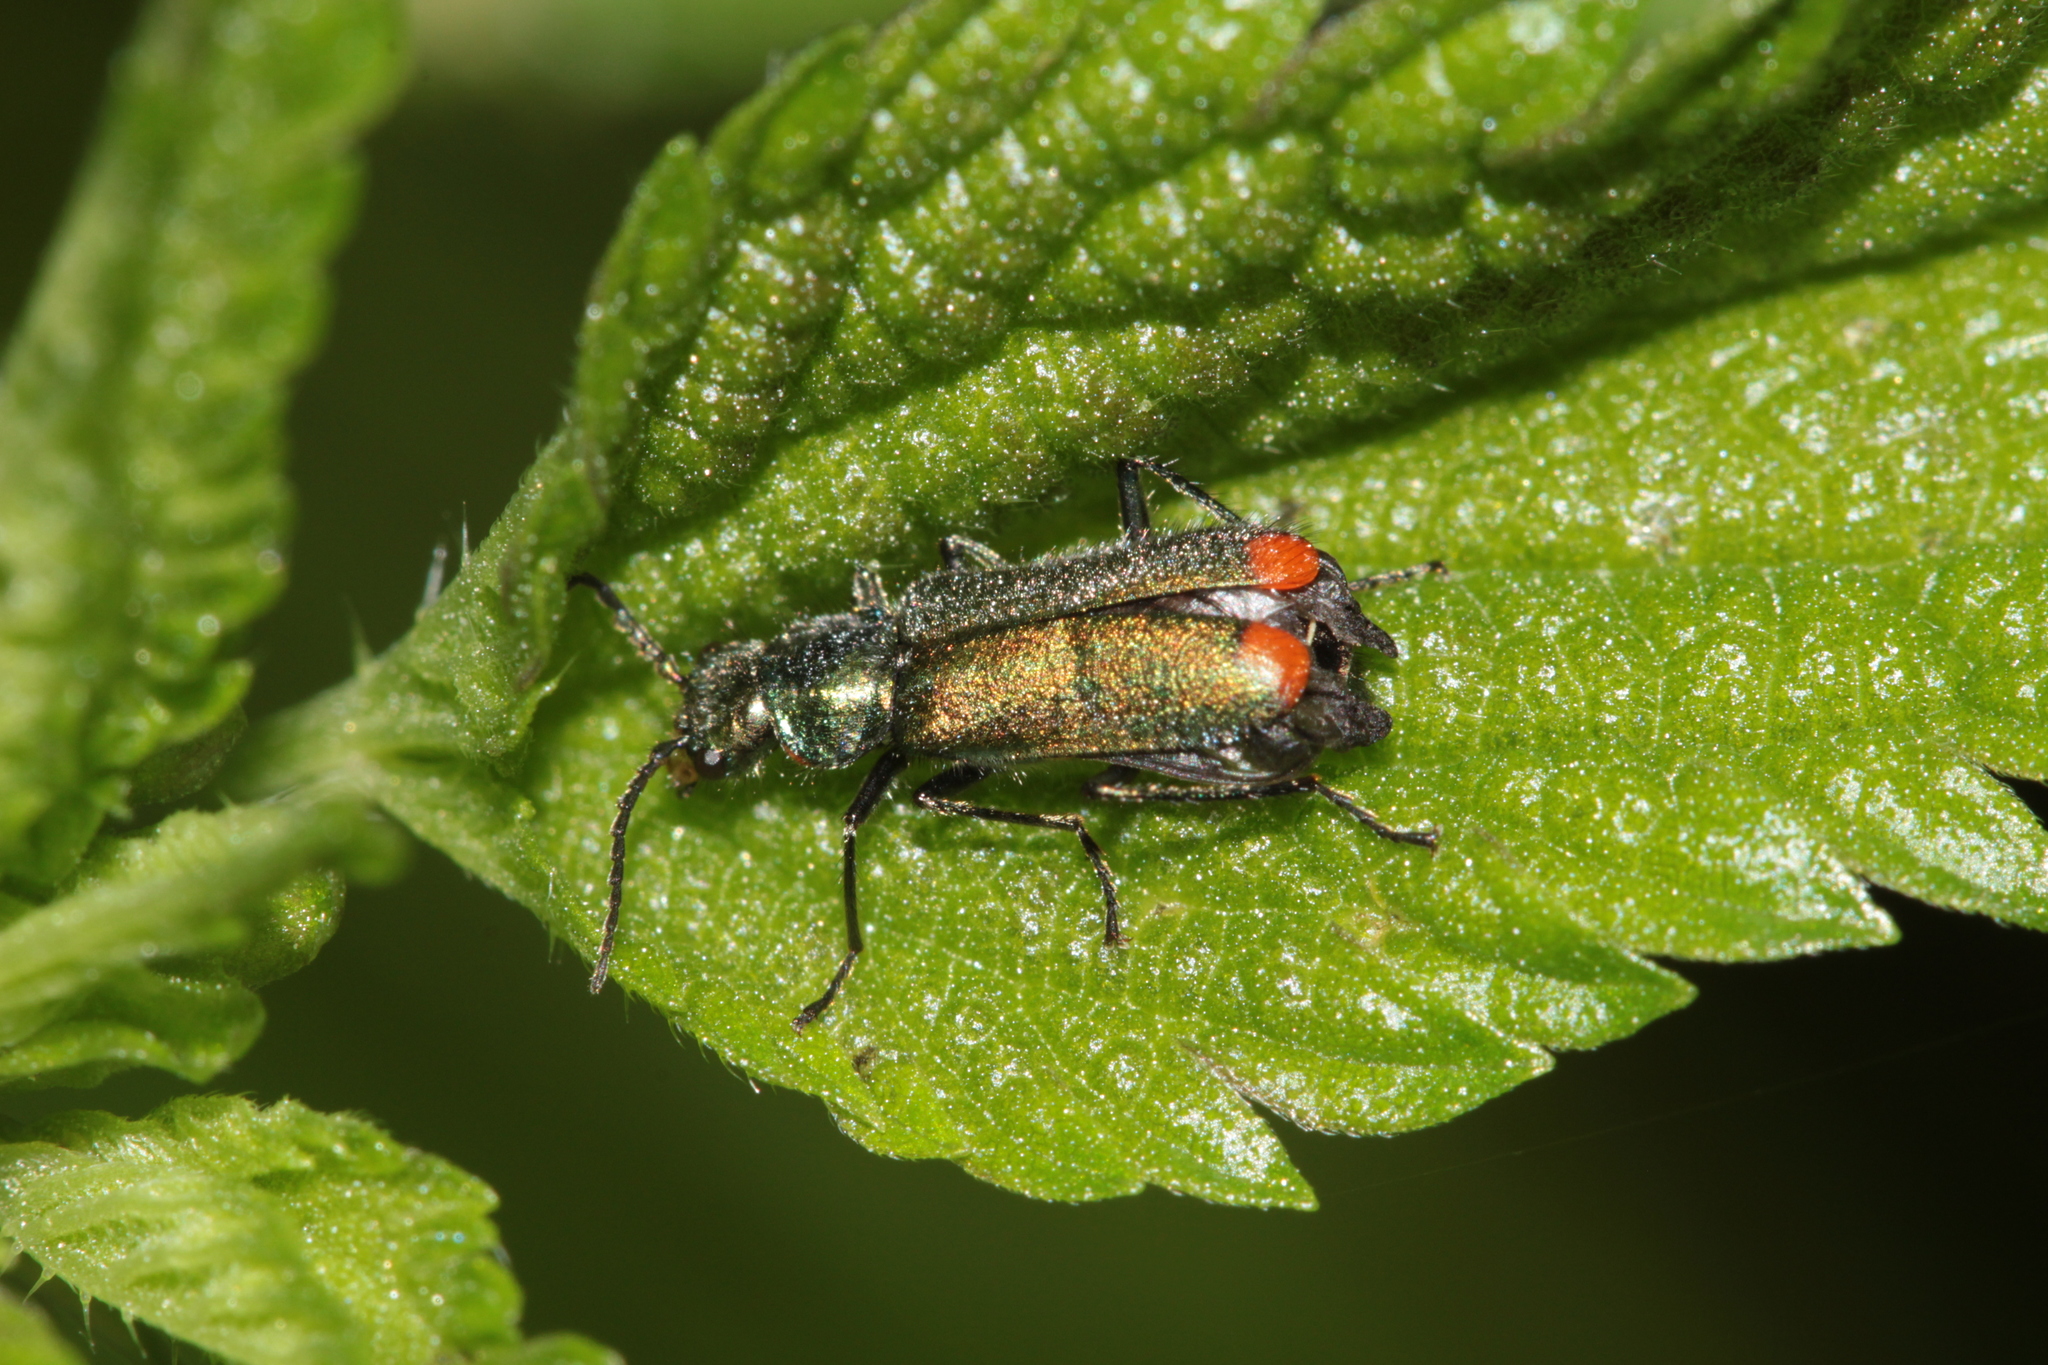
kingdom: Animalia
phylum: Arthropoda
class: Insecta
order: Coleoptera
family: Melyridae
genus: Malachius
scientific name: Malachius bipustulatus
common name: Malachite beetle
